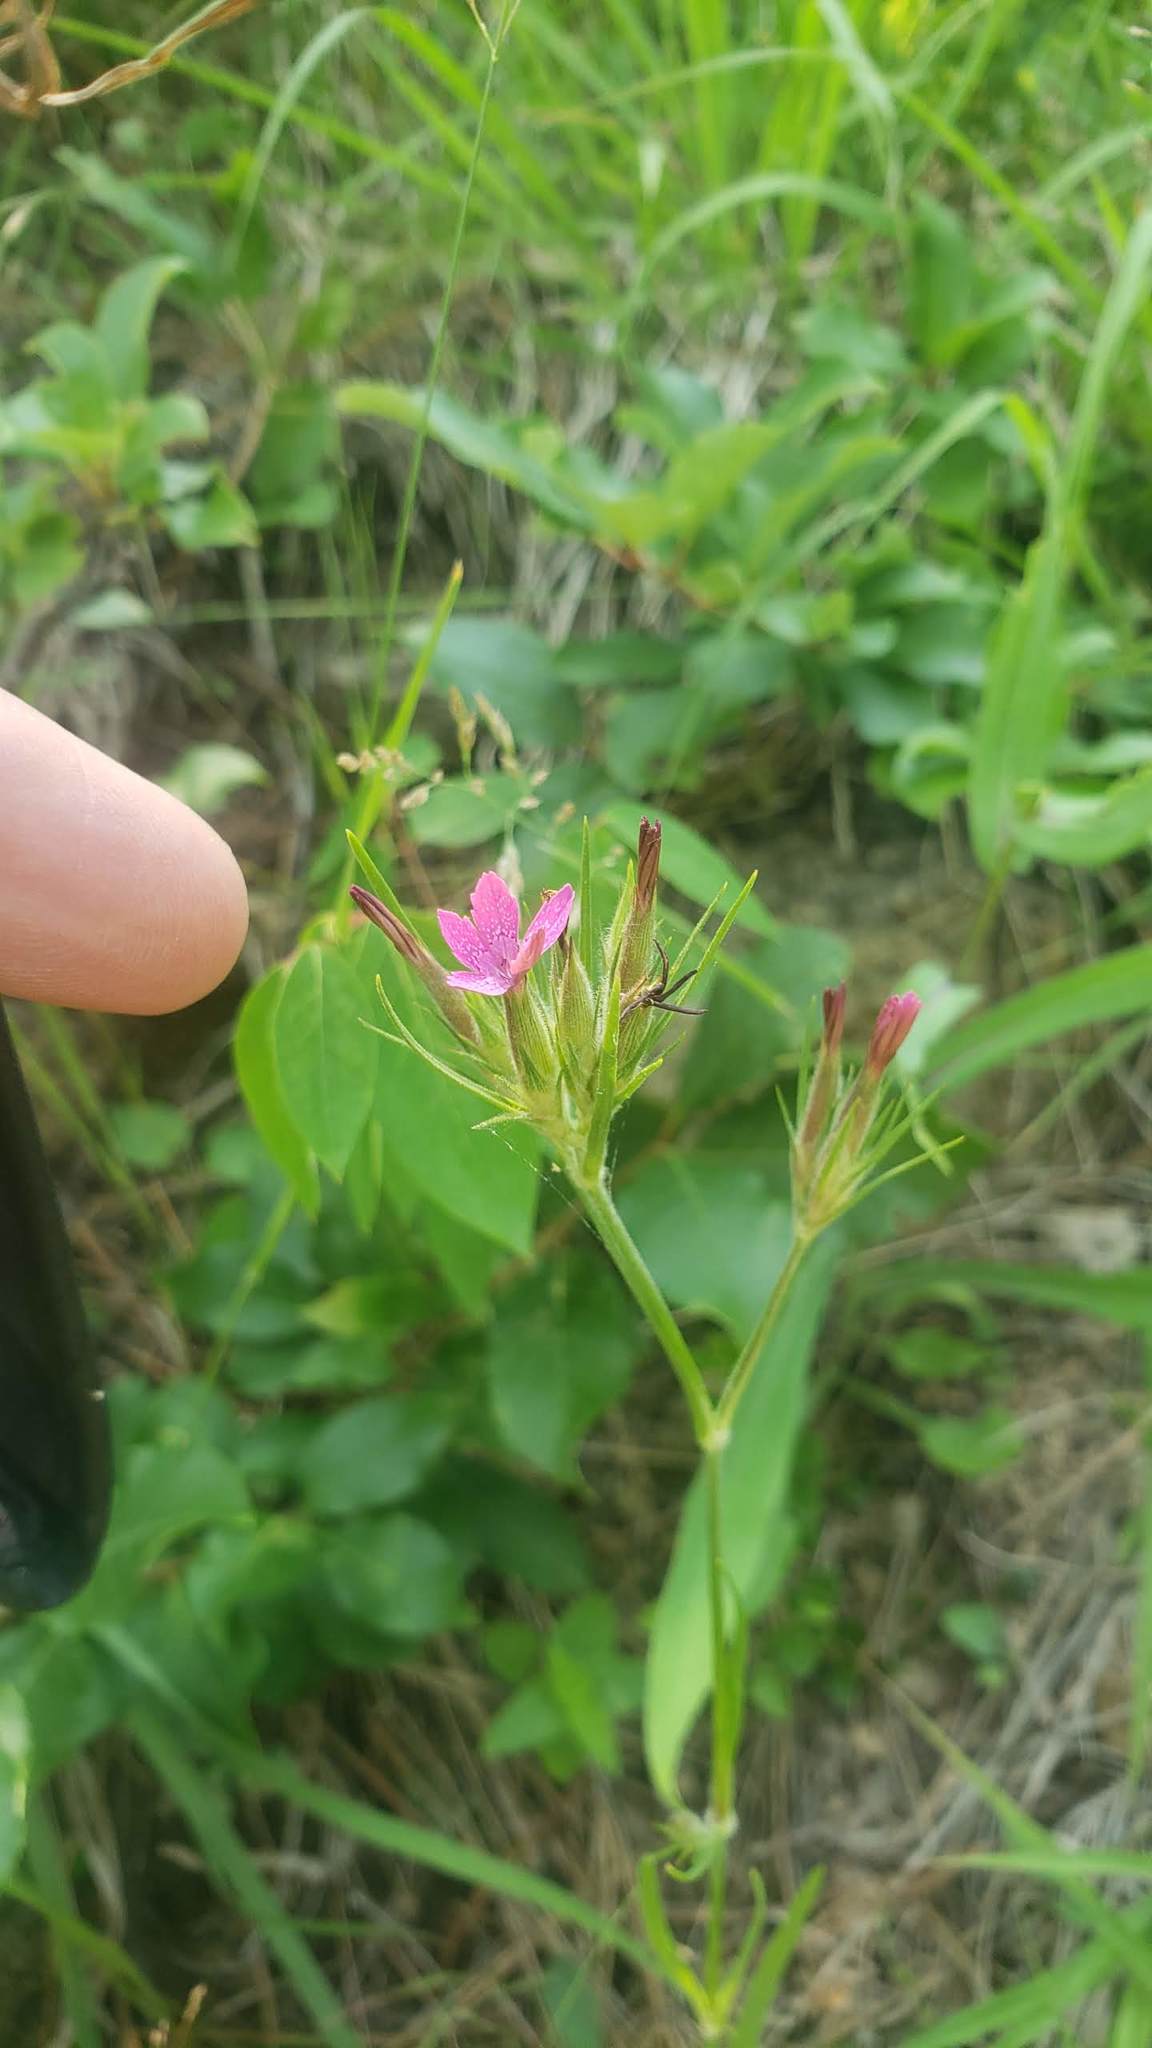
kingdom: Plantae
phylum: Tracheophyta
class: Magnoliopsida
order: Caryophyllales
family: Caryophyllaceae
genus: Dianthus
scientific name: Dianthus armeria
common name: Deptford pink
